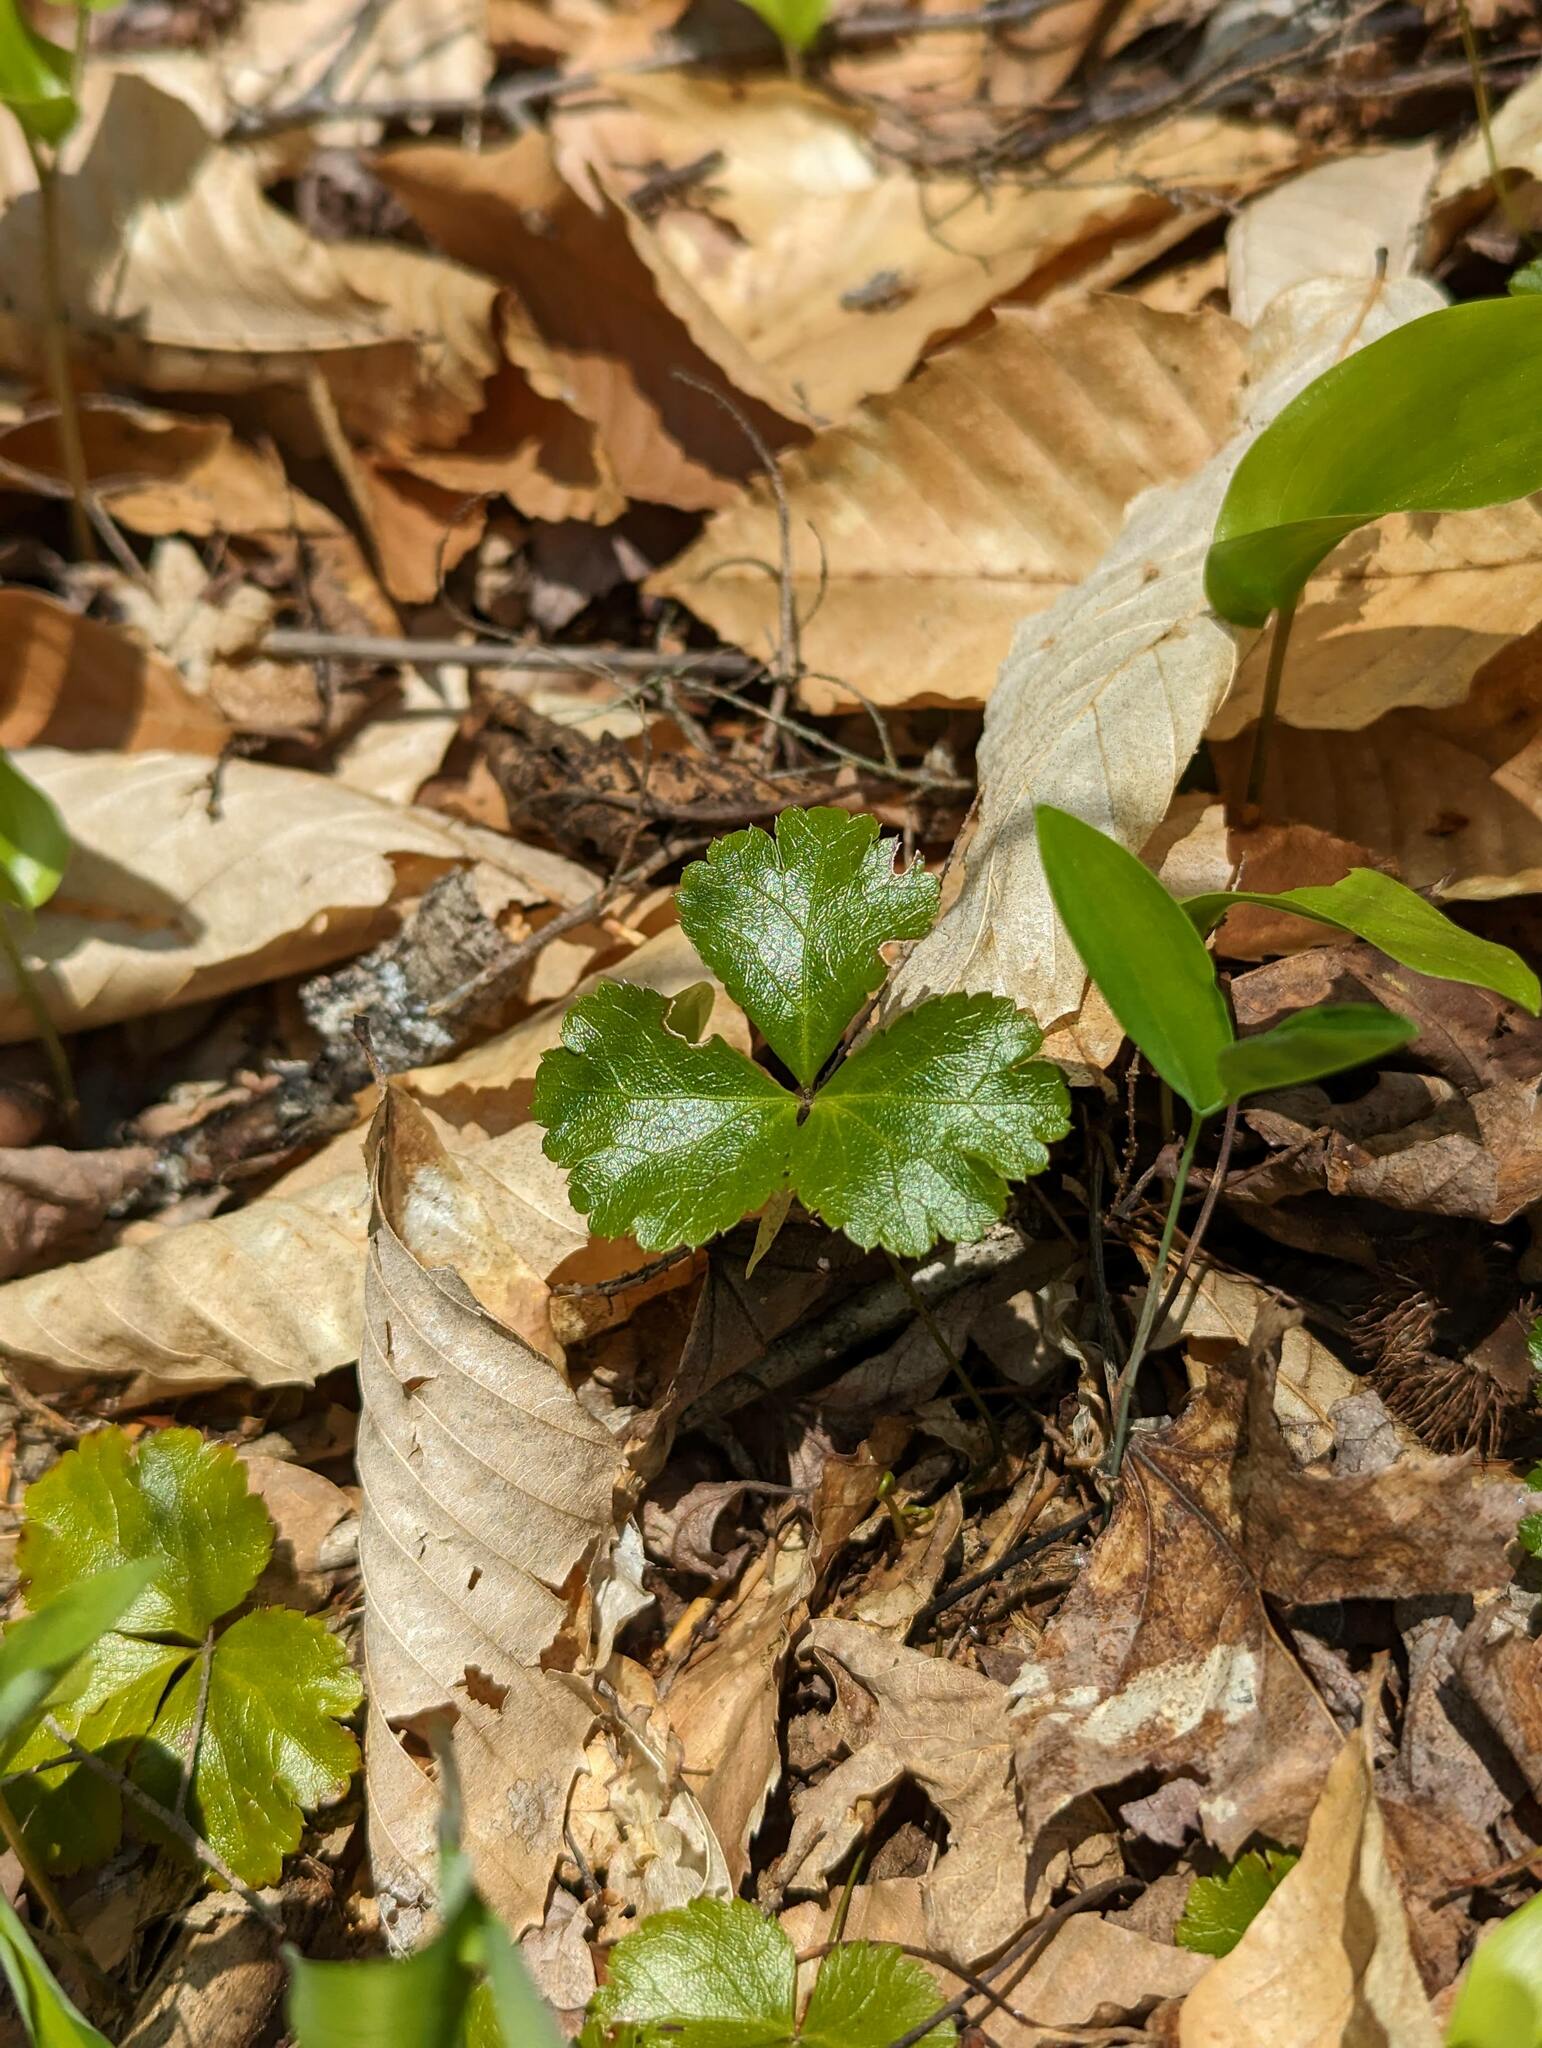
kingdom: Plantae
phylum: Tracheophyta
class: Magnoliopsida
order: Ranunculales
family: Ranunculaceae
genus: Coptis
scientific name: Coptis trifolia
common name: Canker-root
